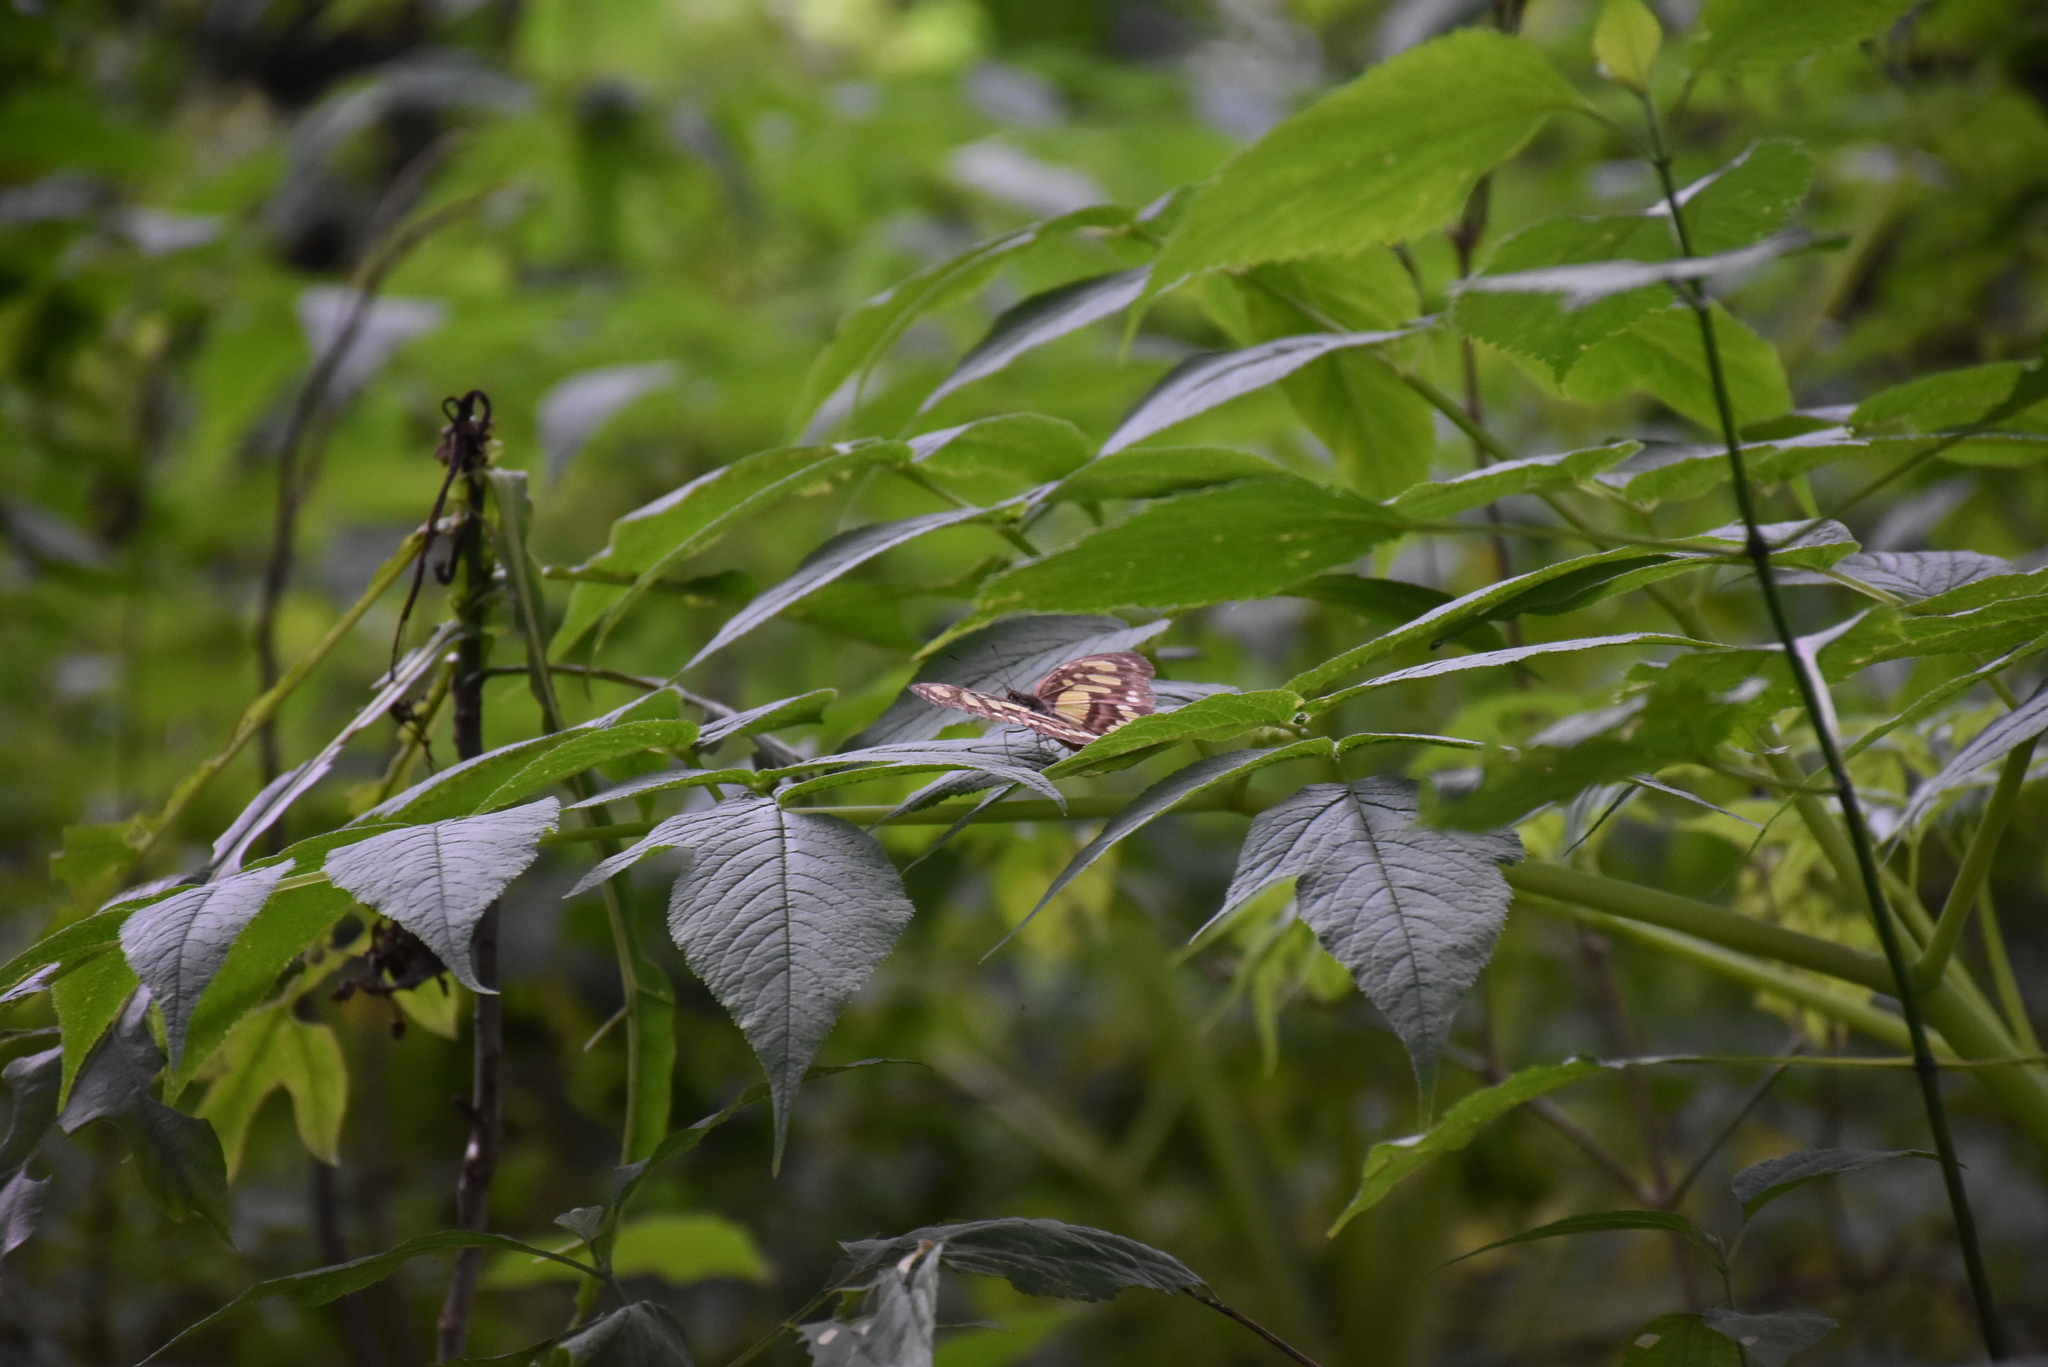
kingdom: Animalia
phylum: Arthropoda
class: Insecta
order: Lepidoptera
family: Nymphalidae
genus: Siproeta
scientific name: Siproeta stelenes
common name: Malachite
